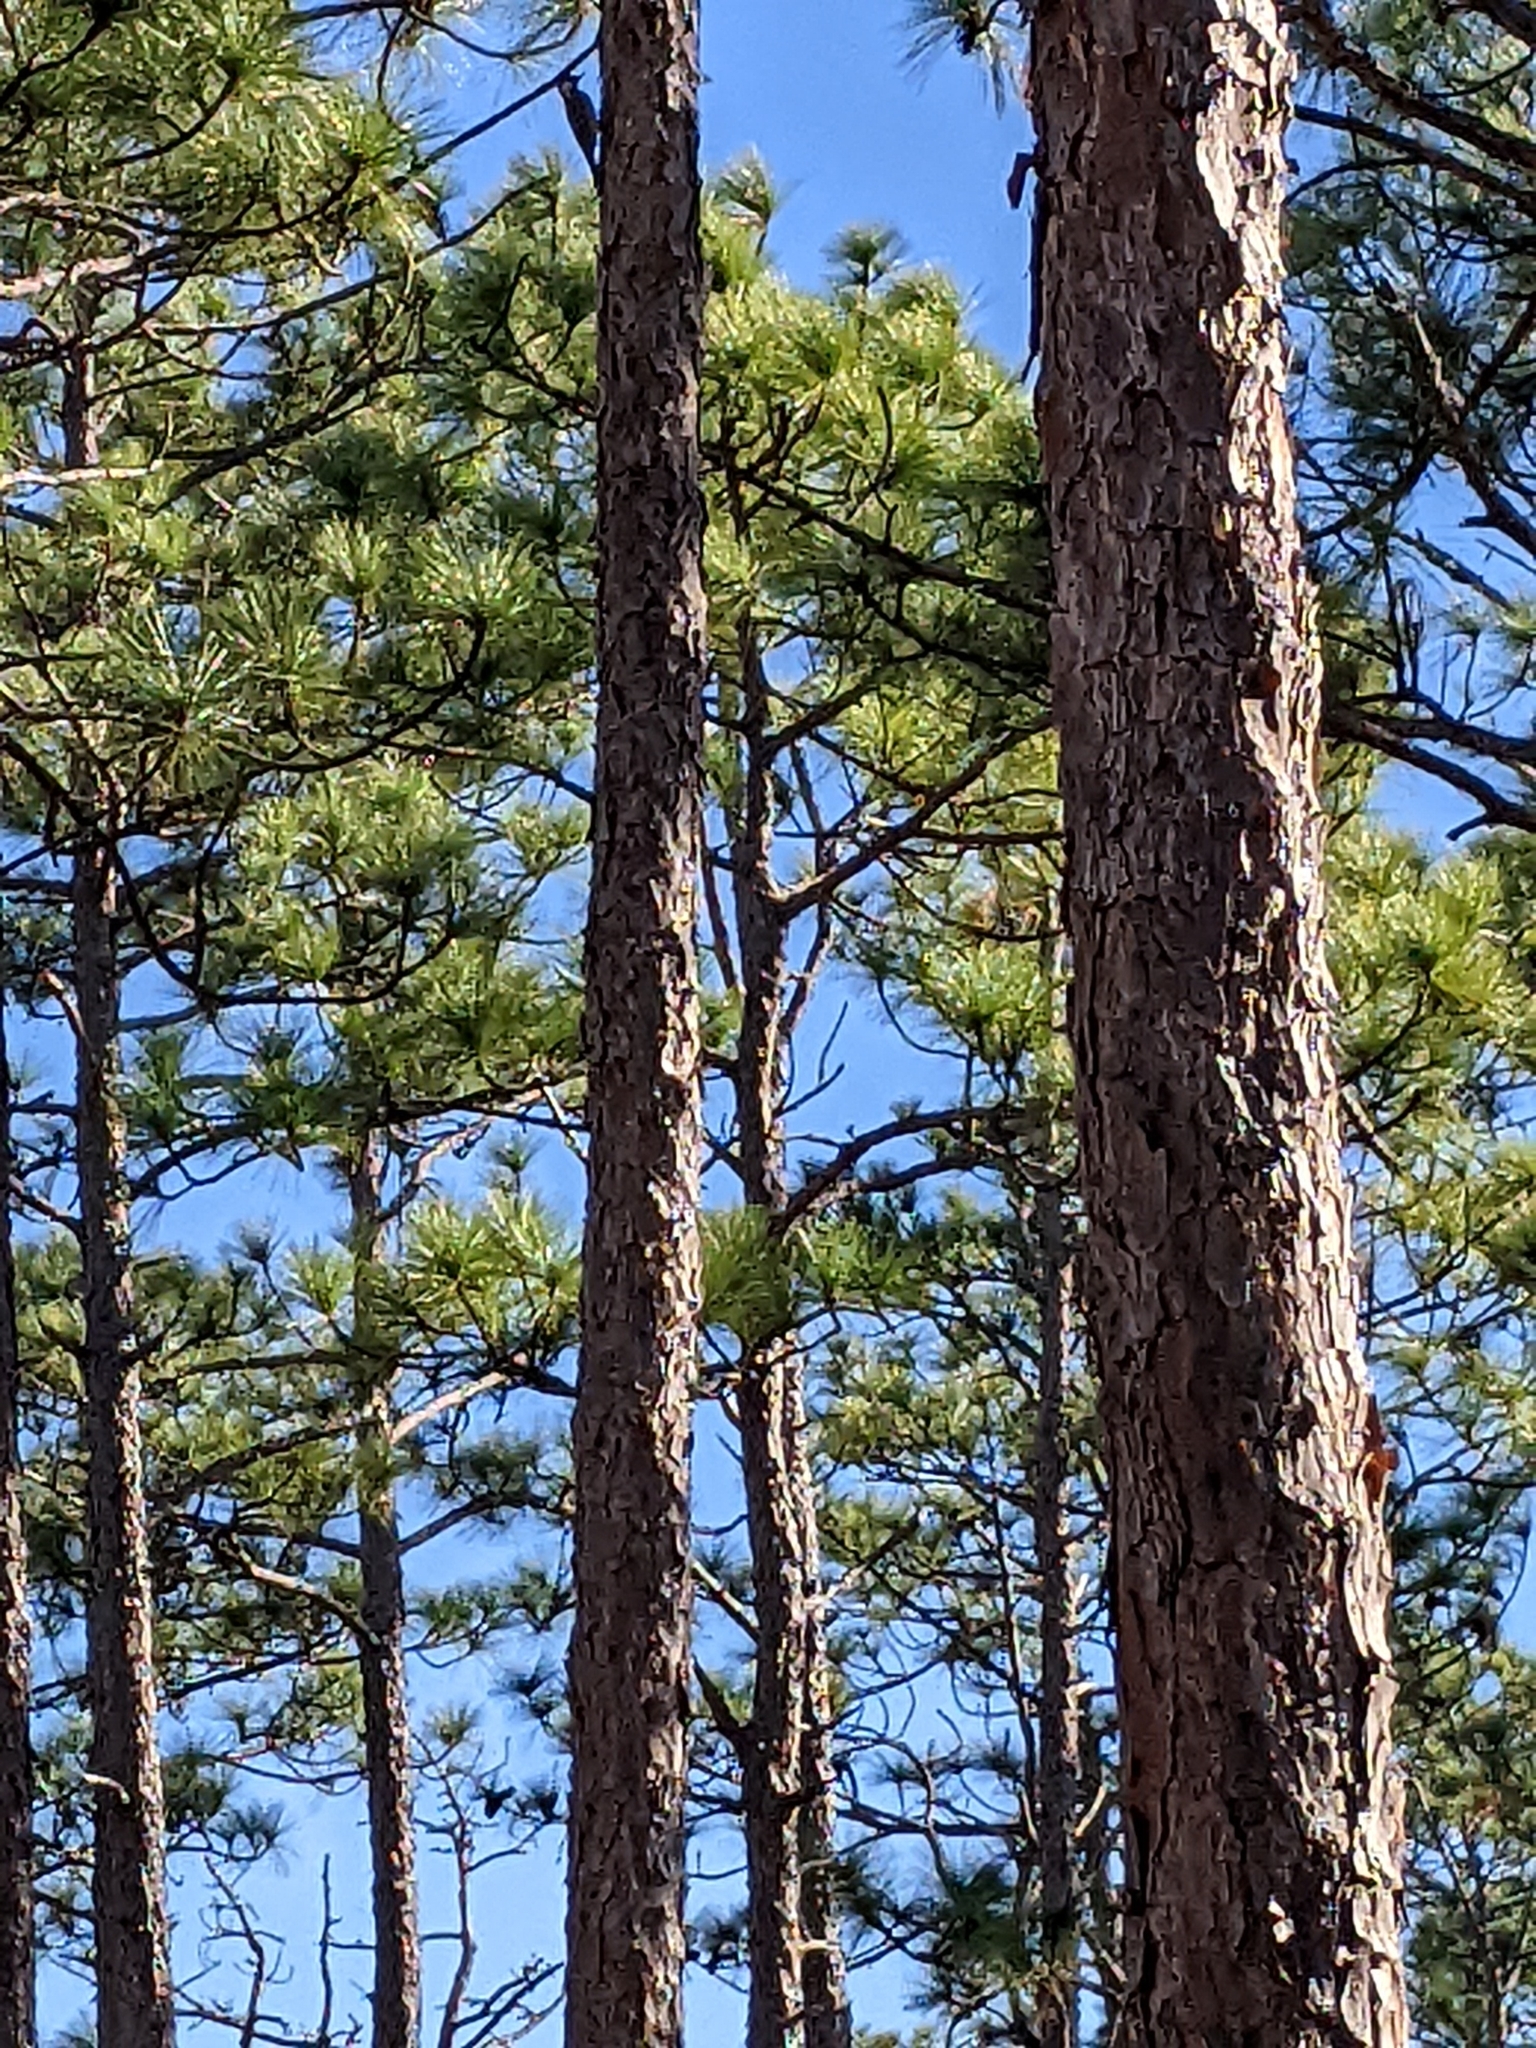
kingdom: Plantae
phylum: Tracheophyta
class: Pinopsida
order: Pinales
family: Pinaceae
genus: Pinus
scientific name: Pinus palustris
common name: Longleaf pine
